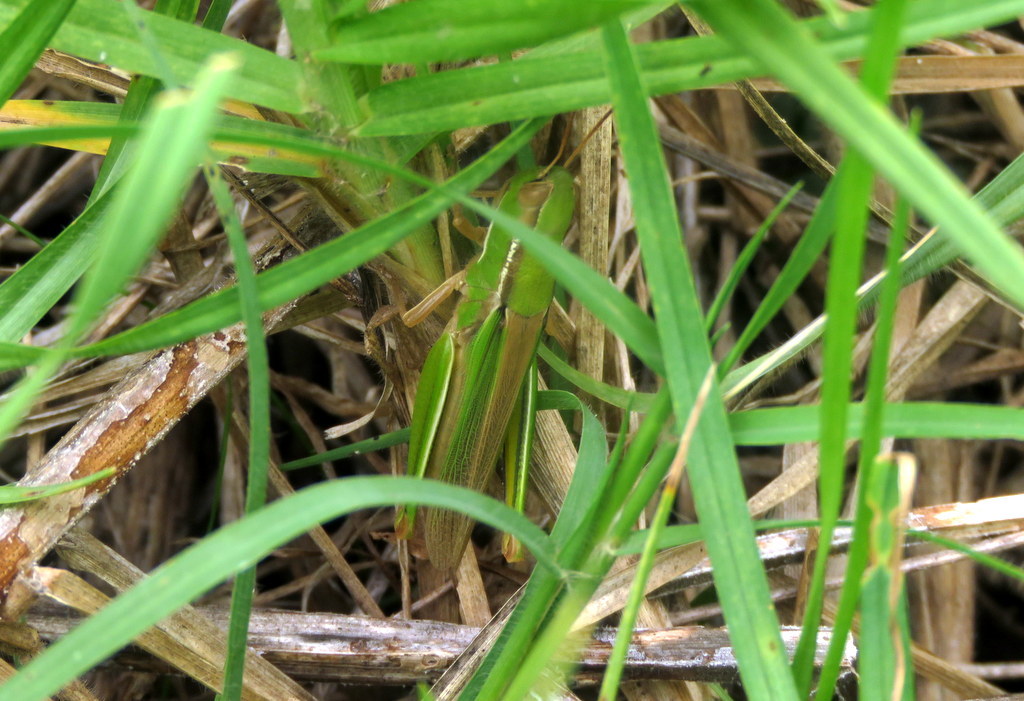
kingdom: Animalia
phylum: Arthropoda
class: Insecta
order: Orthoptera
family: Acrididae
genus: Aleuas
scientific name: Aleuas lineatus
